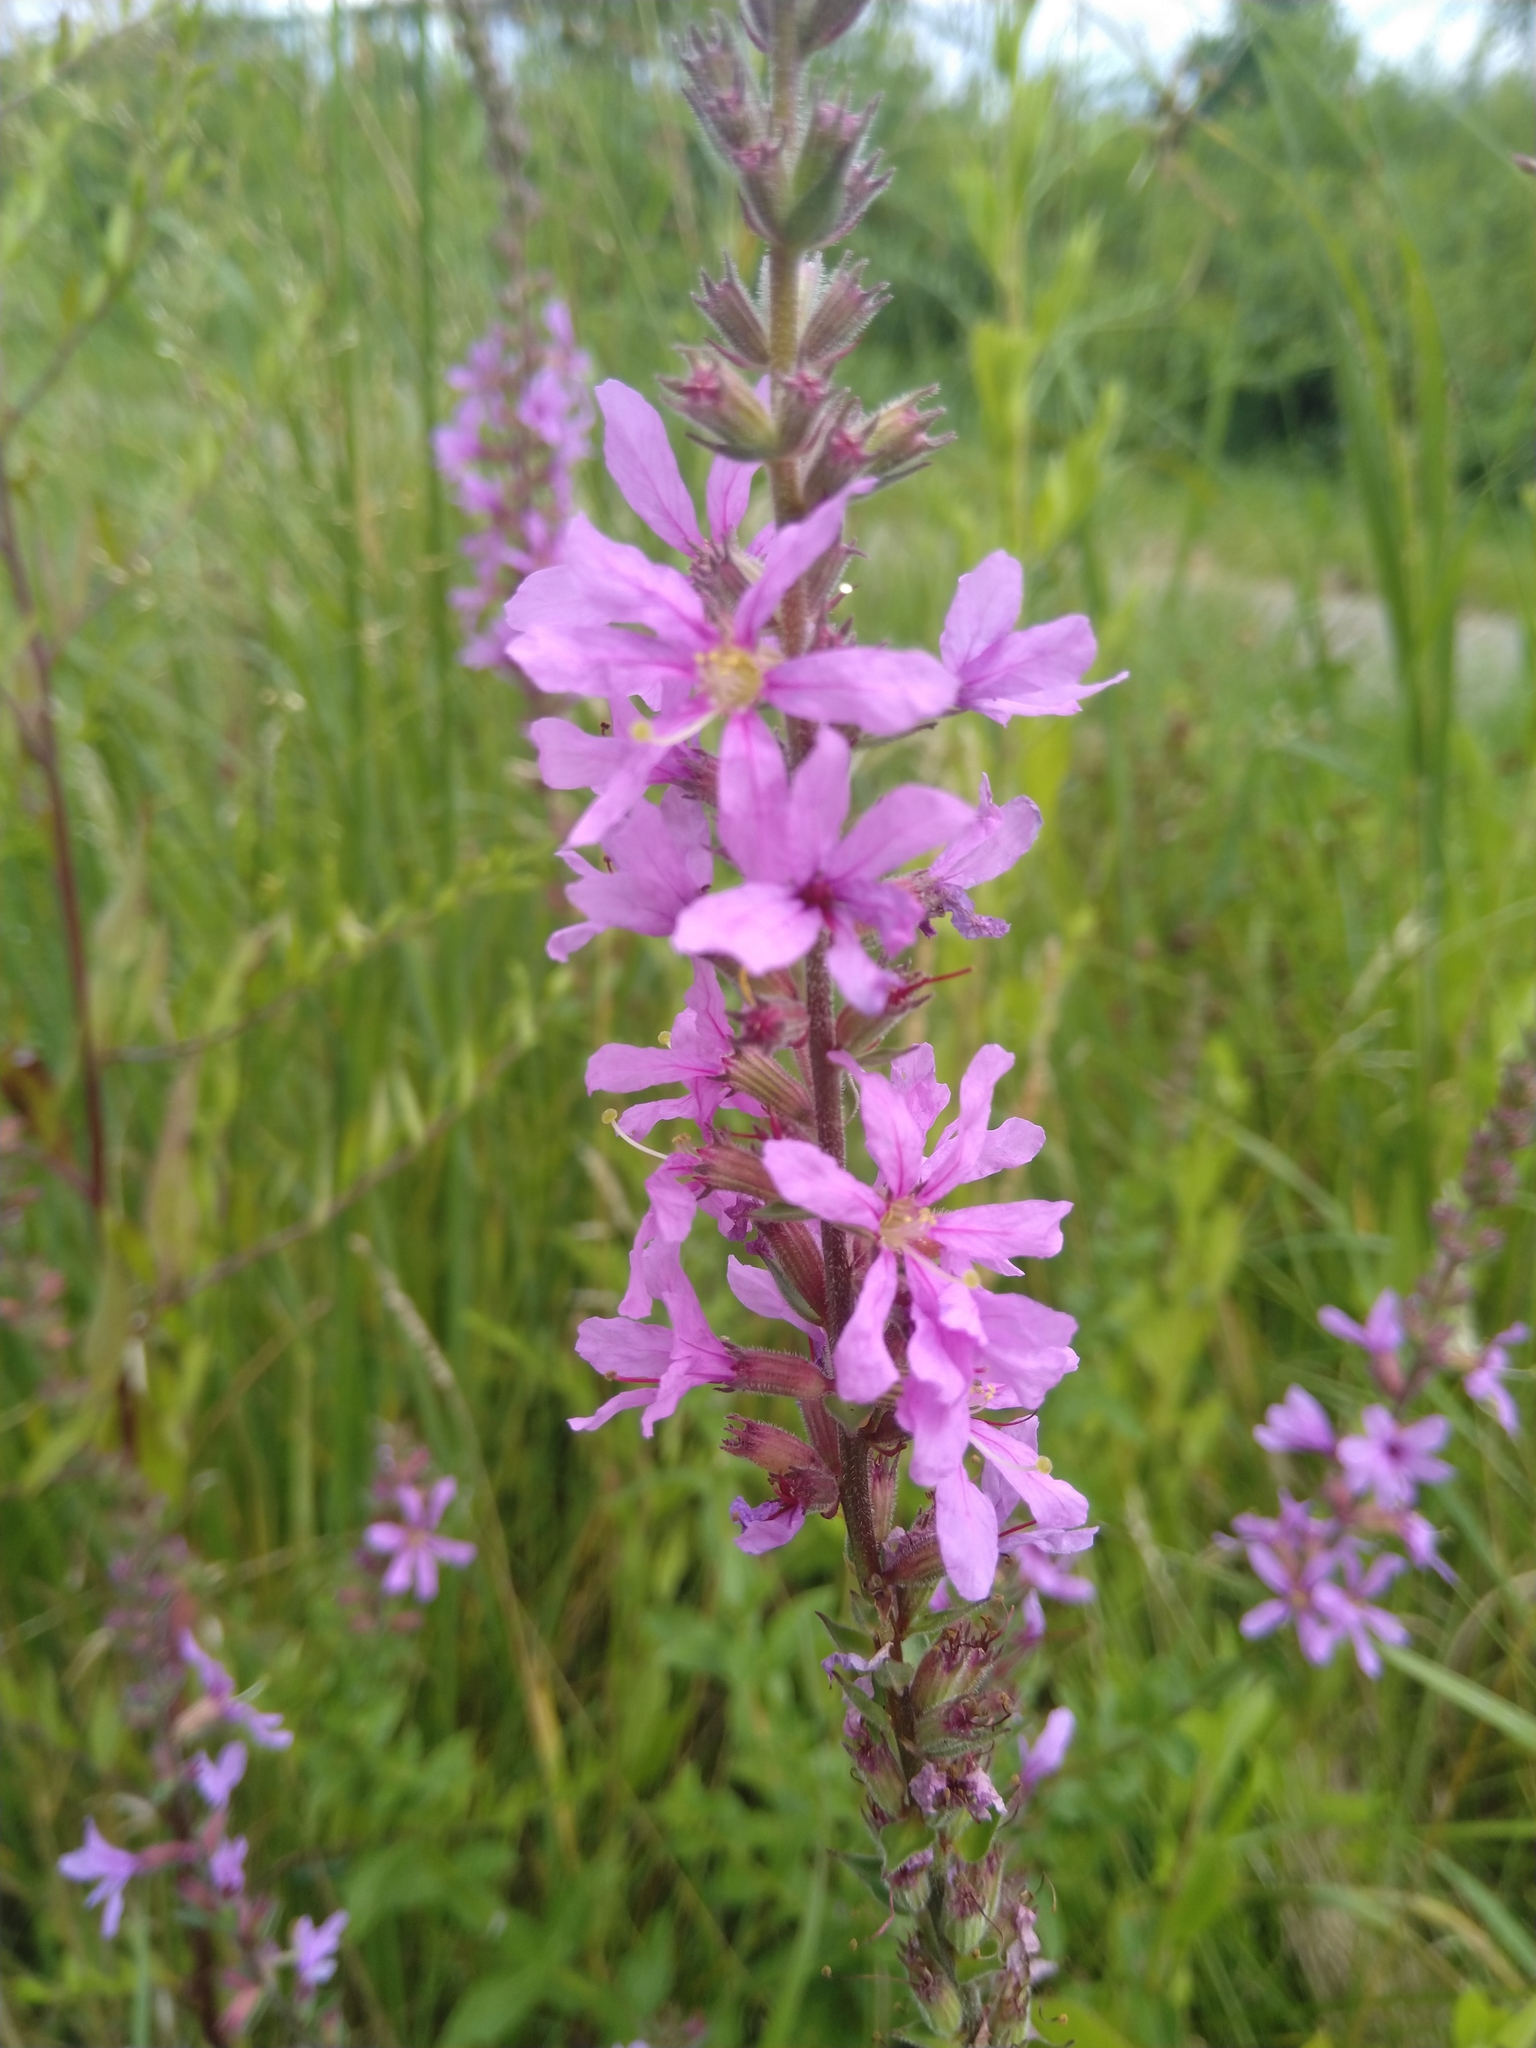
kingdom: Plantae
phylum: Tracheophyta
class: Magnoliopsida
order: Myrtales
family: Lythraceae
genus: Lythrum
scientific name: Lythrum salicaria
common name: Purple loosestrife
